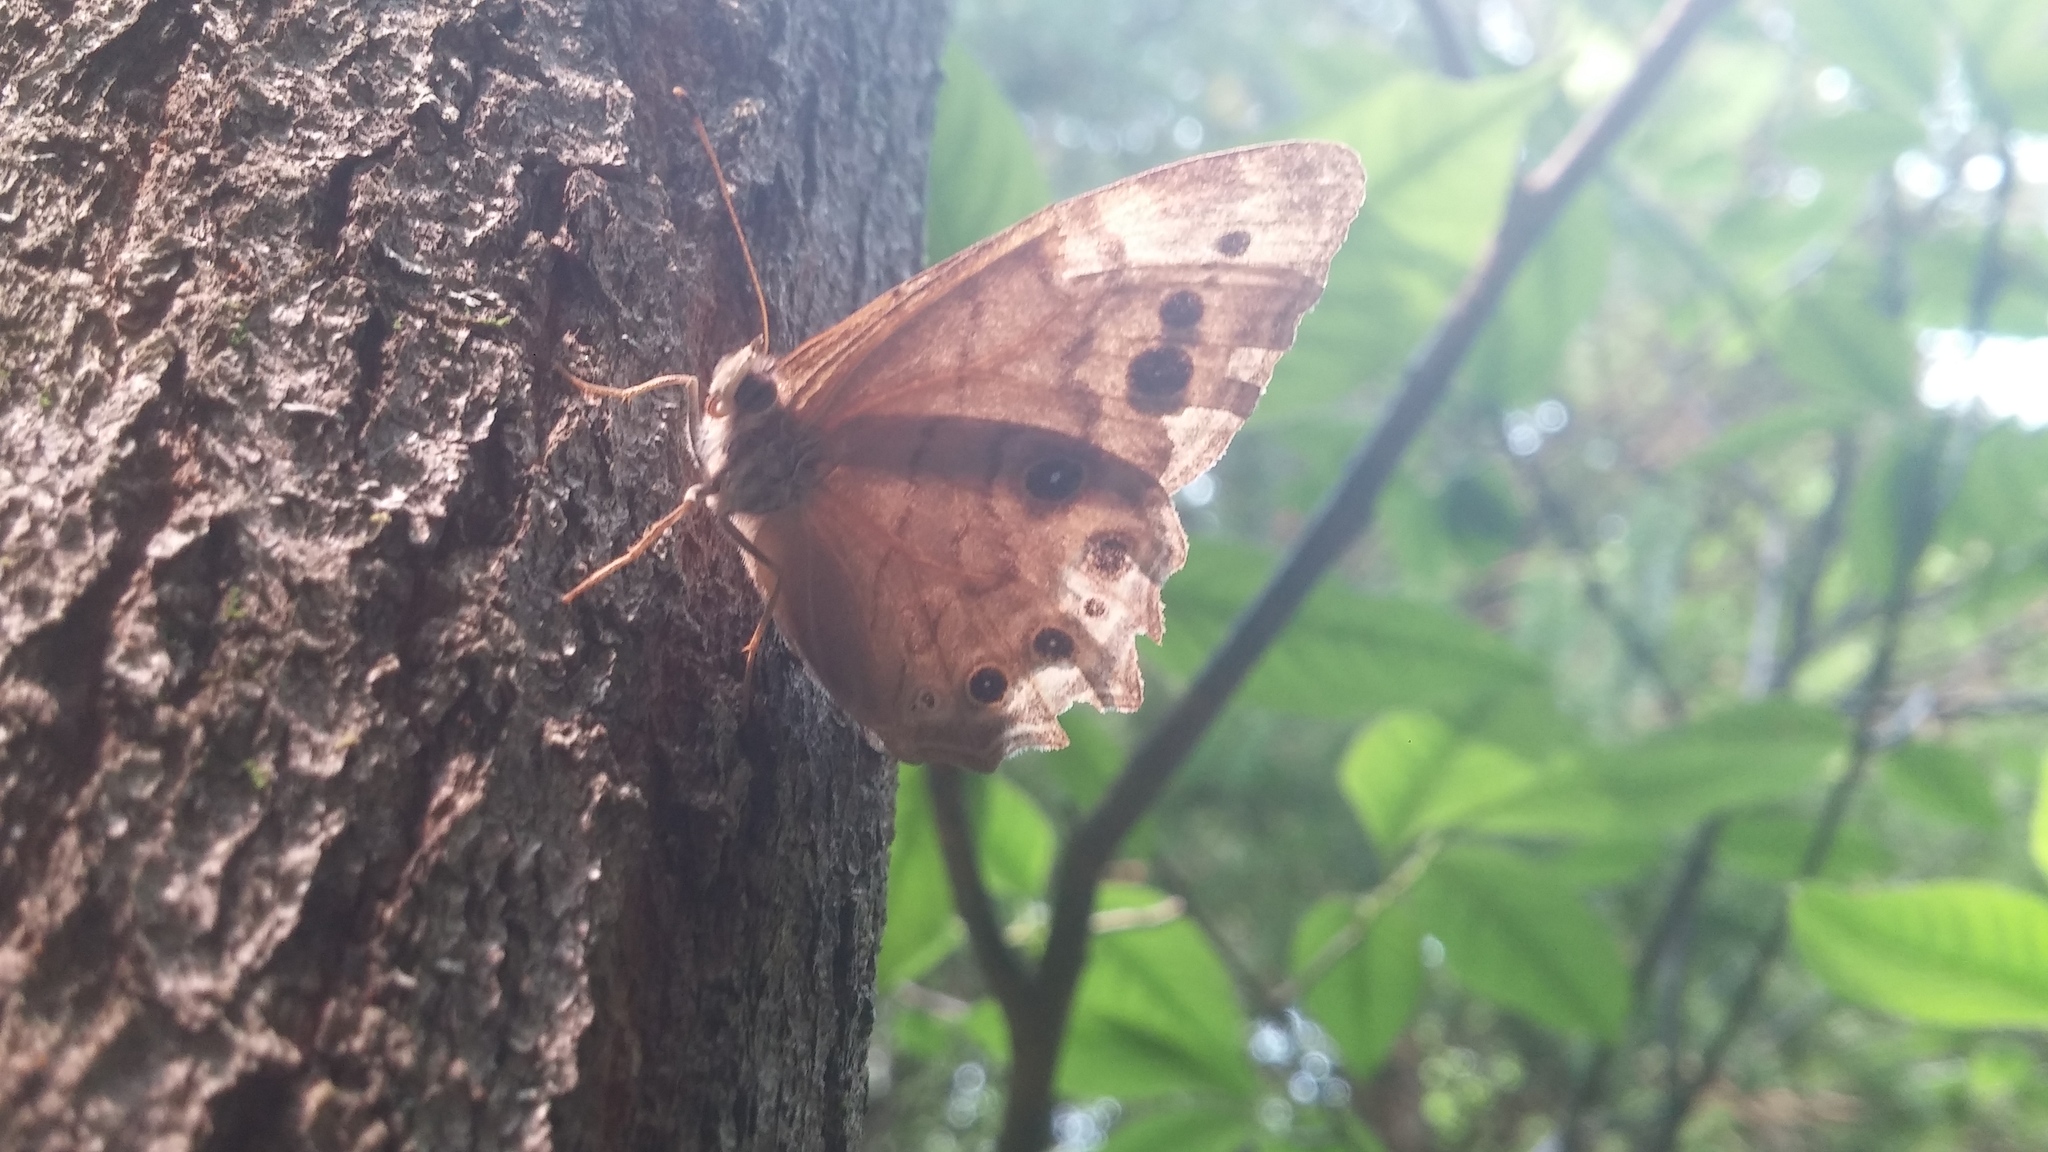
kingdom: Animalia
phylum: Arthropoda
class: Insecta
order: Lepidoptera
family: Nymphalidae
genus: Lethe
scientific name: Lethe anthedon
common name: Northern pearly-eye
